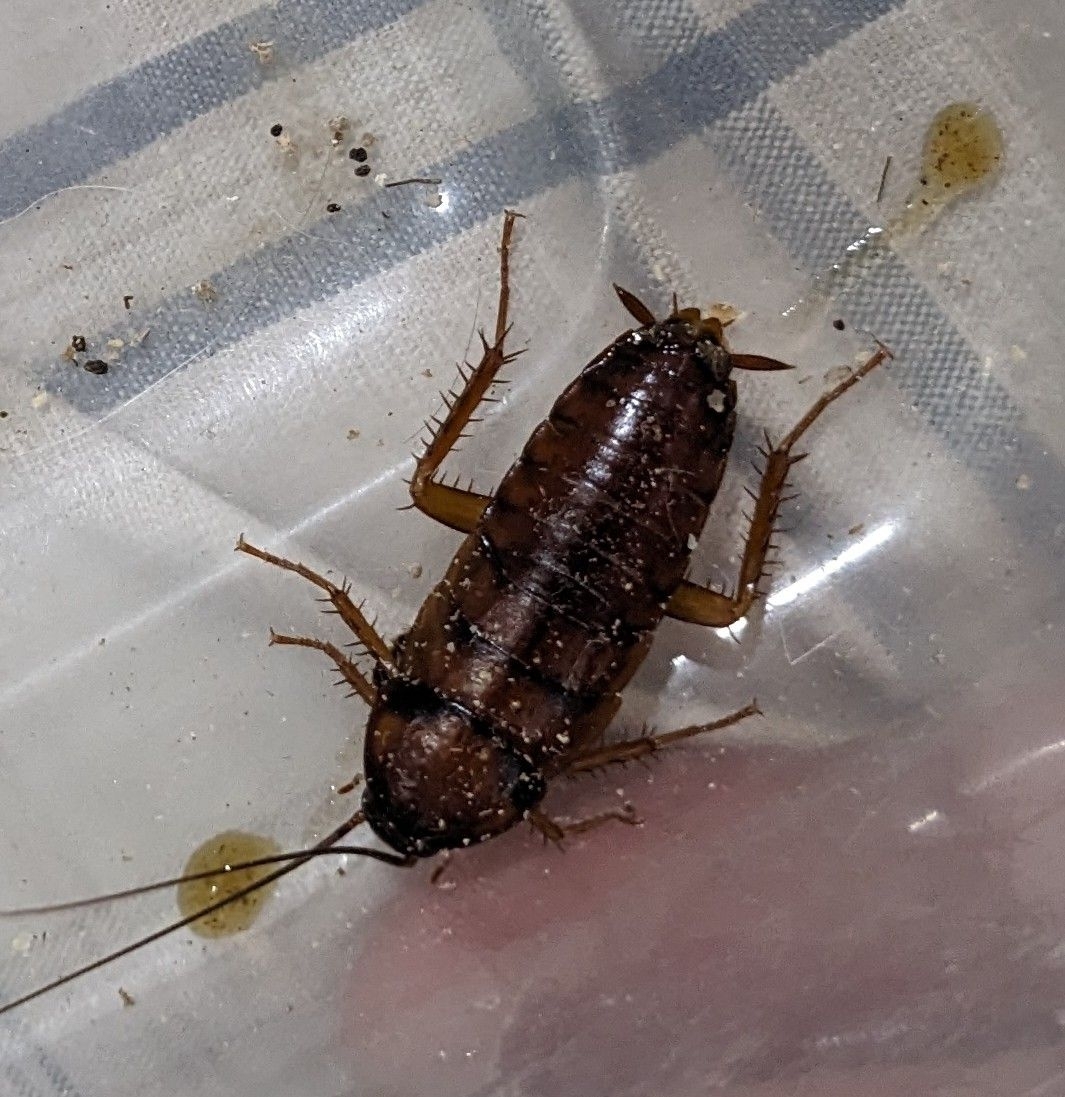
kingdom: Animalia
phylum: Arthropoda
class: Insecta
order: Blattodea
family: Blattidae
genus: Periplaneta
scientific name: Periplaneta americana
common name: American cockroach
